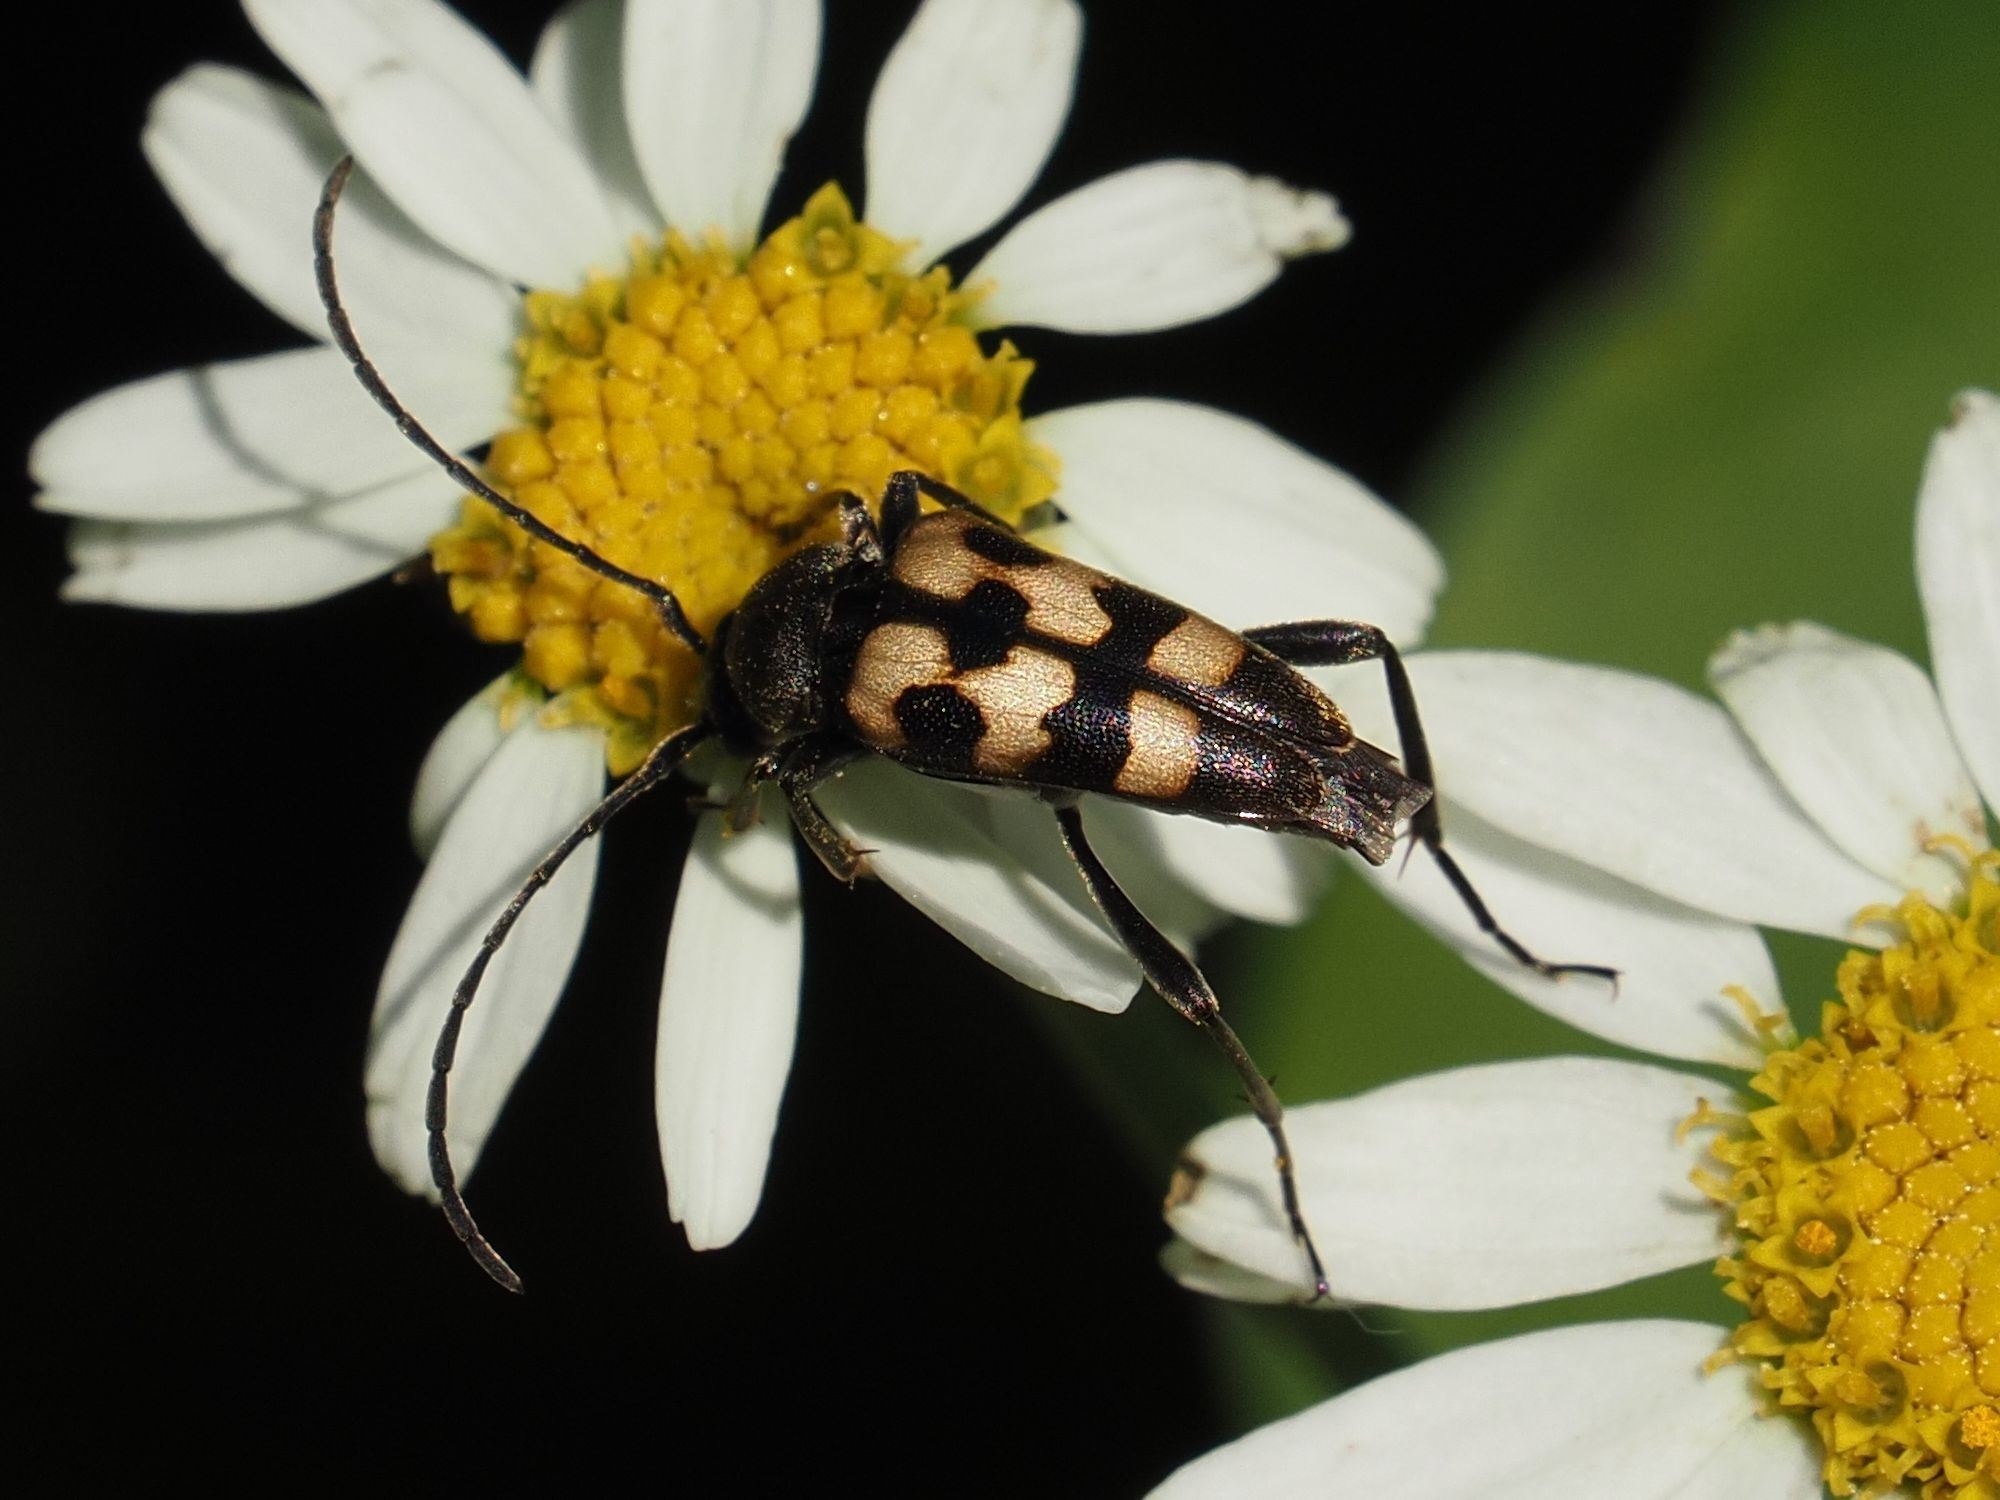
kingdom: Animalia
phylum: Arthropoda
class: Insecta
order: Coleoptera
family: Cerambycidae
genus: Pachytodes
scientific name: Pachytodes
